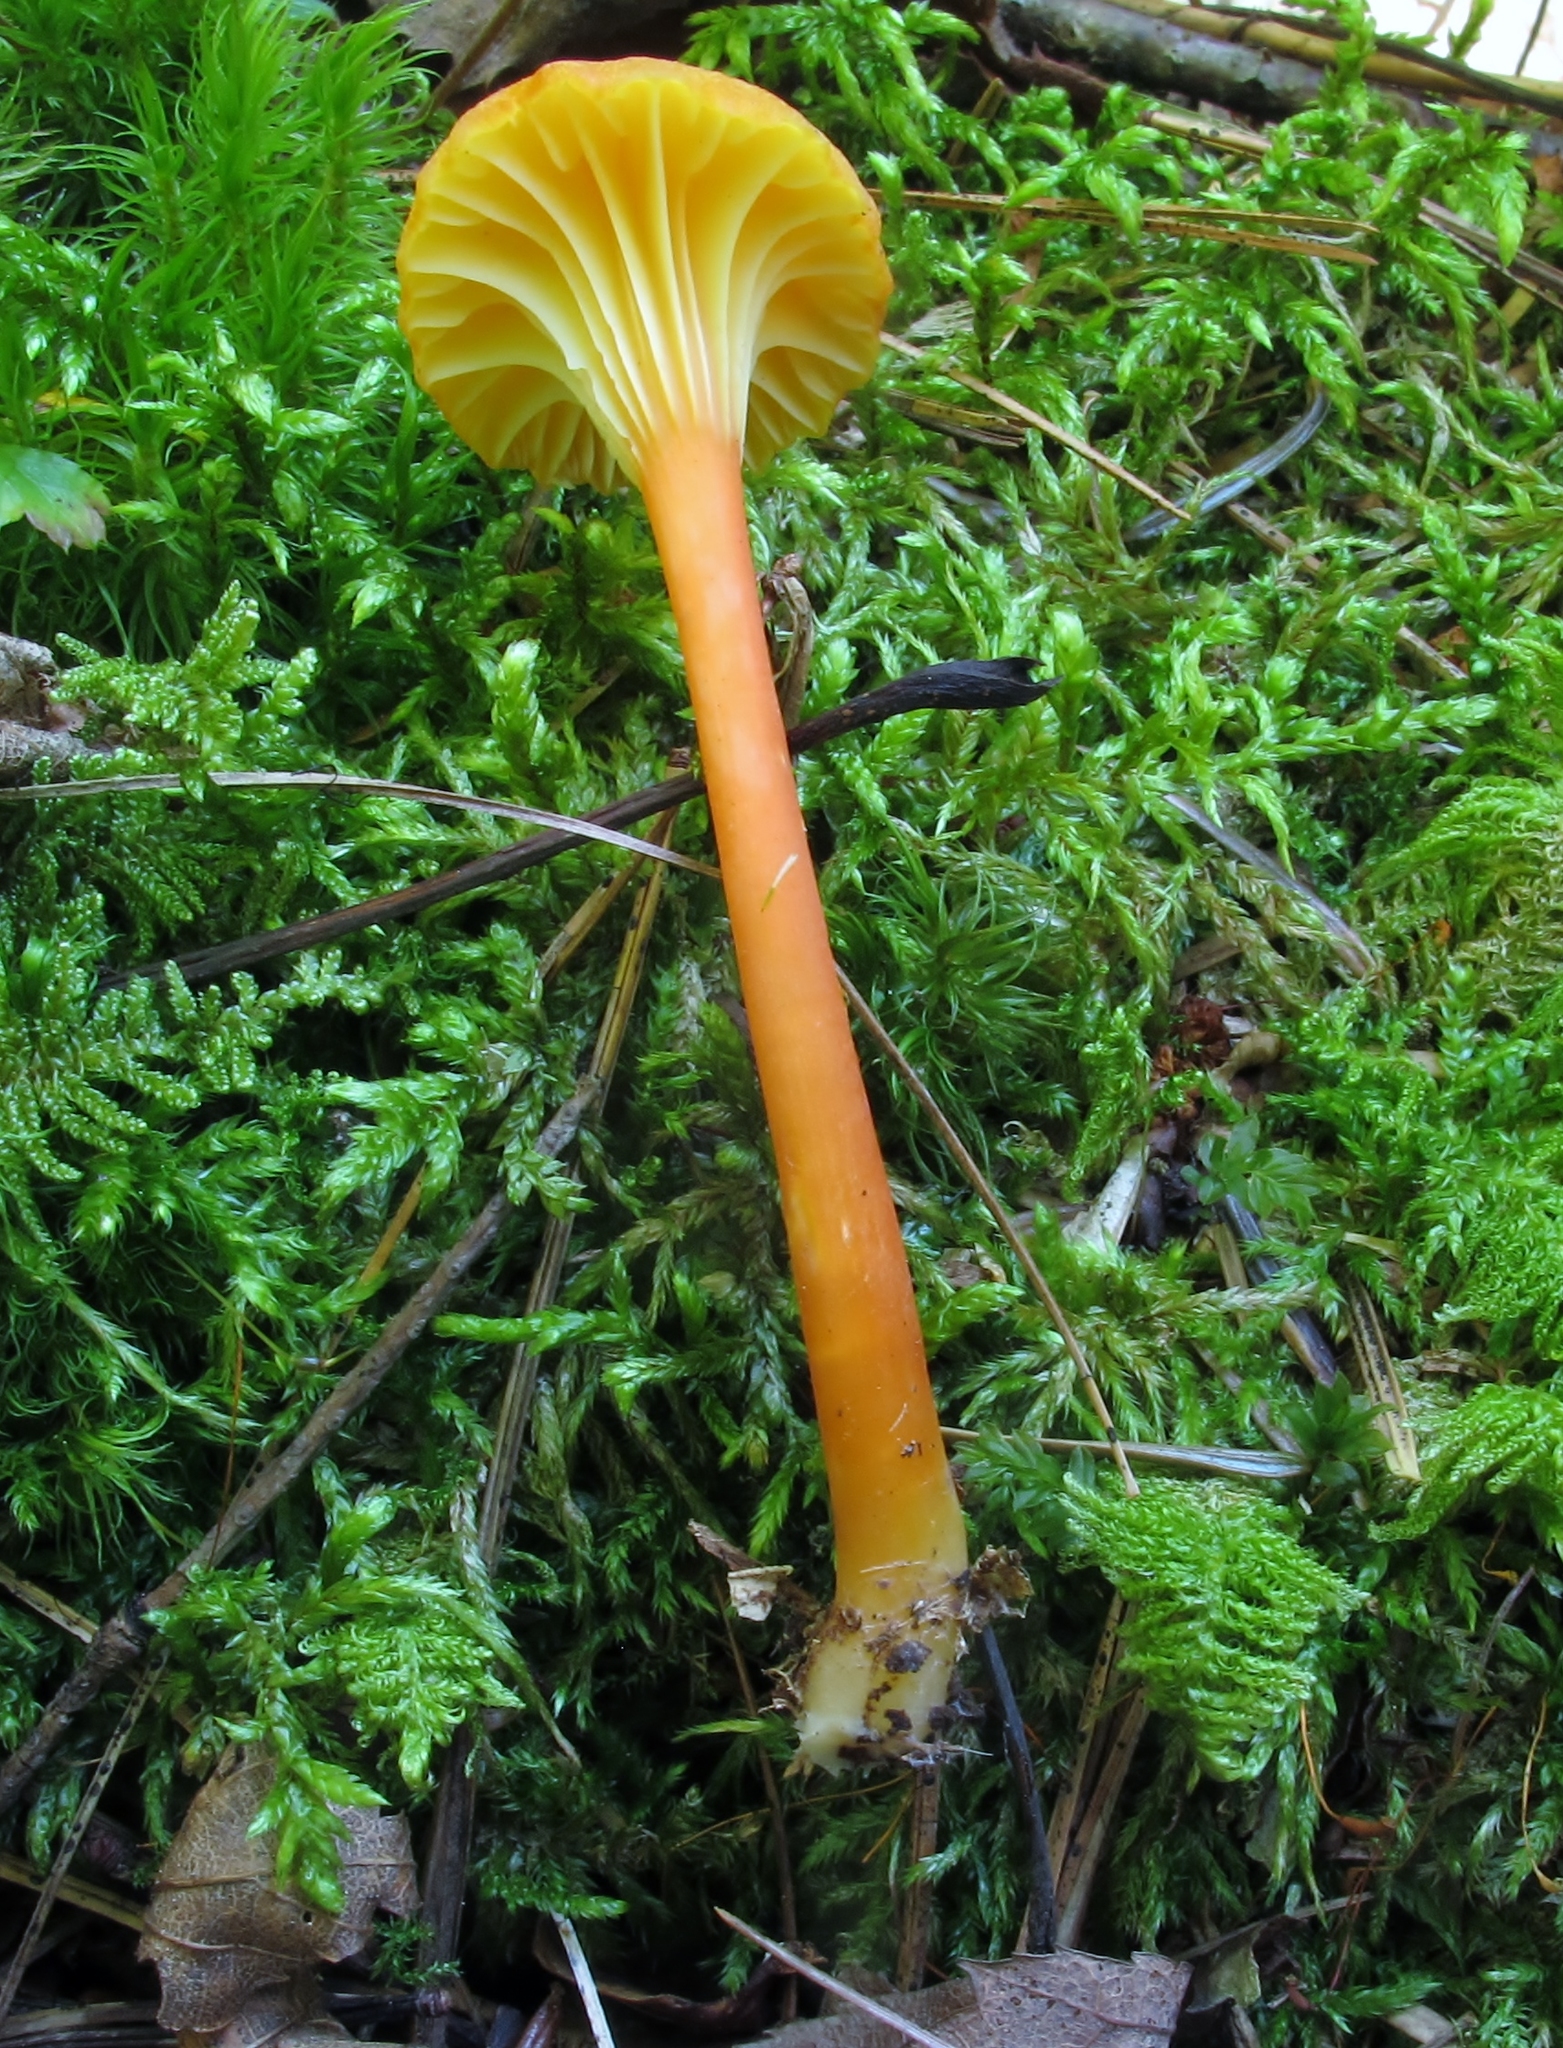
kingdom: Fungi
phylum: Basidiomycota
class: Agaricomycetes
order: Agaricales
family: Hygrophoraceae
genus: Hygrocybe
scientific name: Hygrocybe cantharellus
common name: Goblet waxcap
